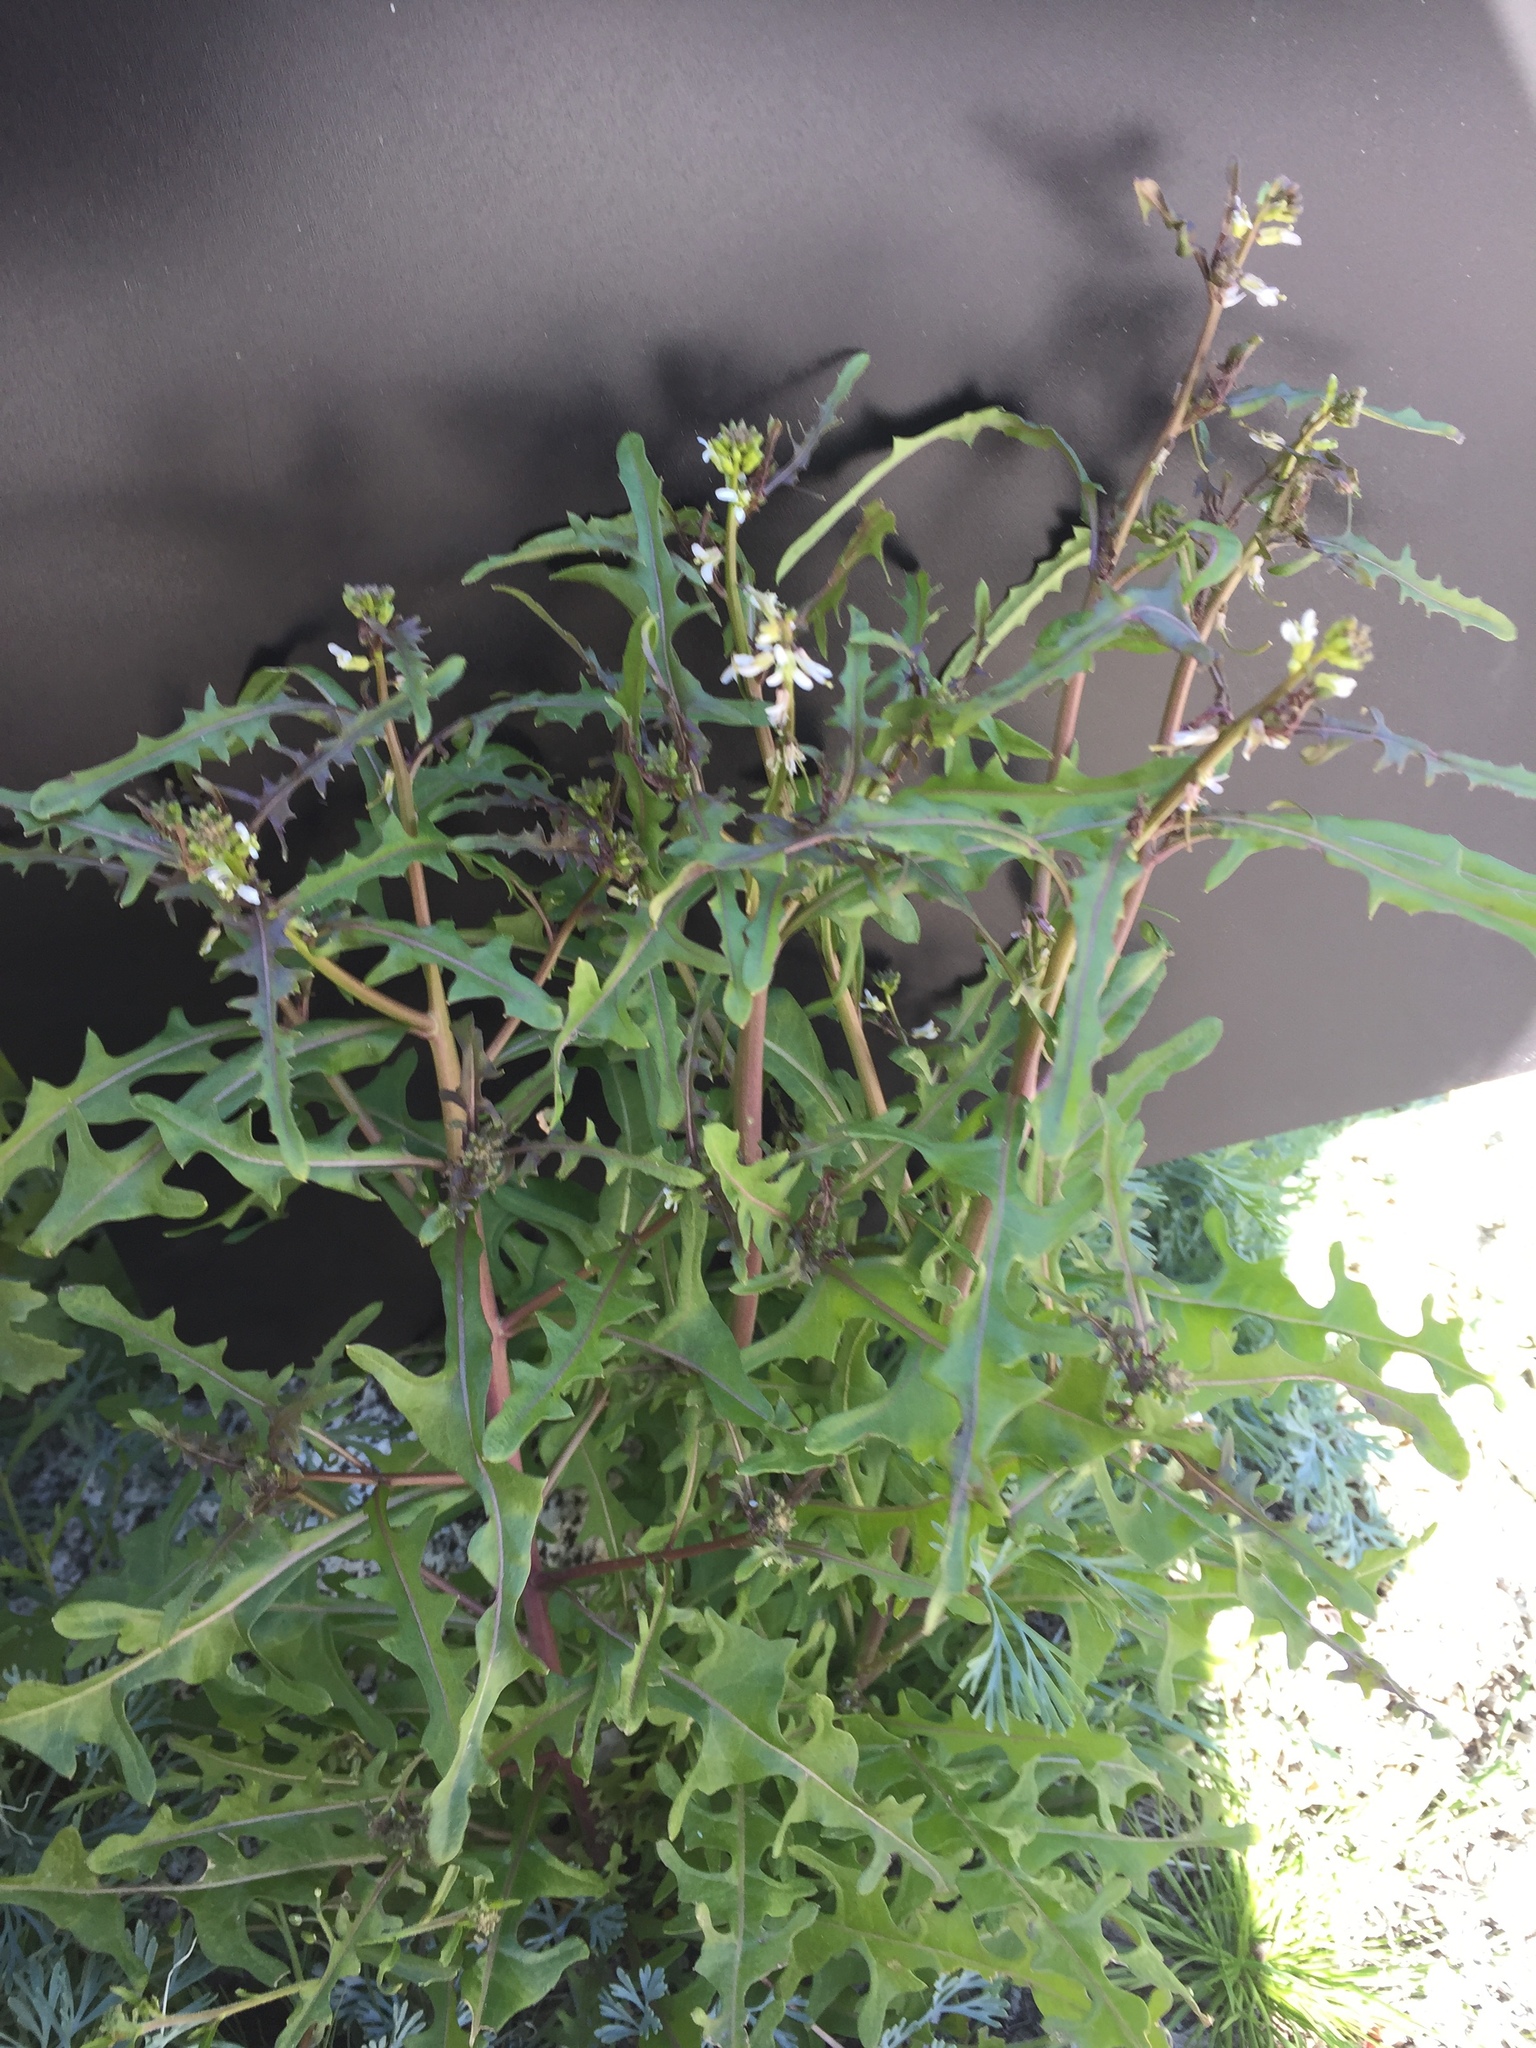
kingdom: Plantae
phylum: Tracheophyta
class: Magnoliopsida
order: Brassicales
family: Brassicaceae
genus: Streptanthus
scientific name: Streptanthus lasiophyllus
